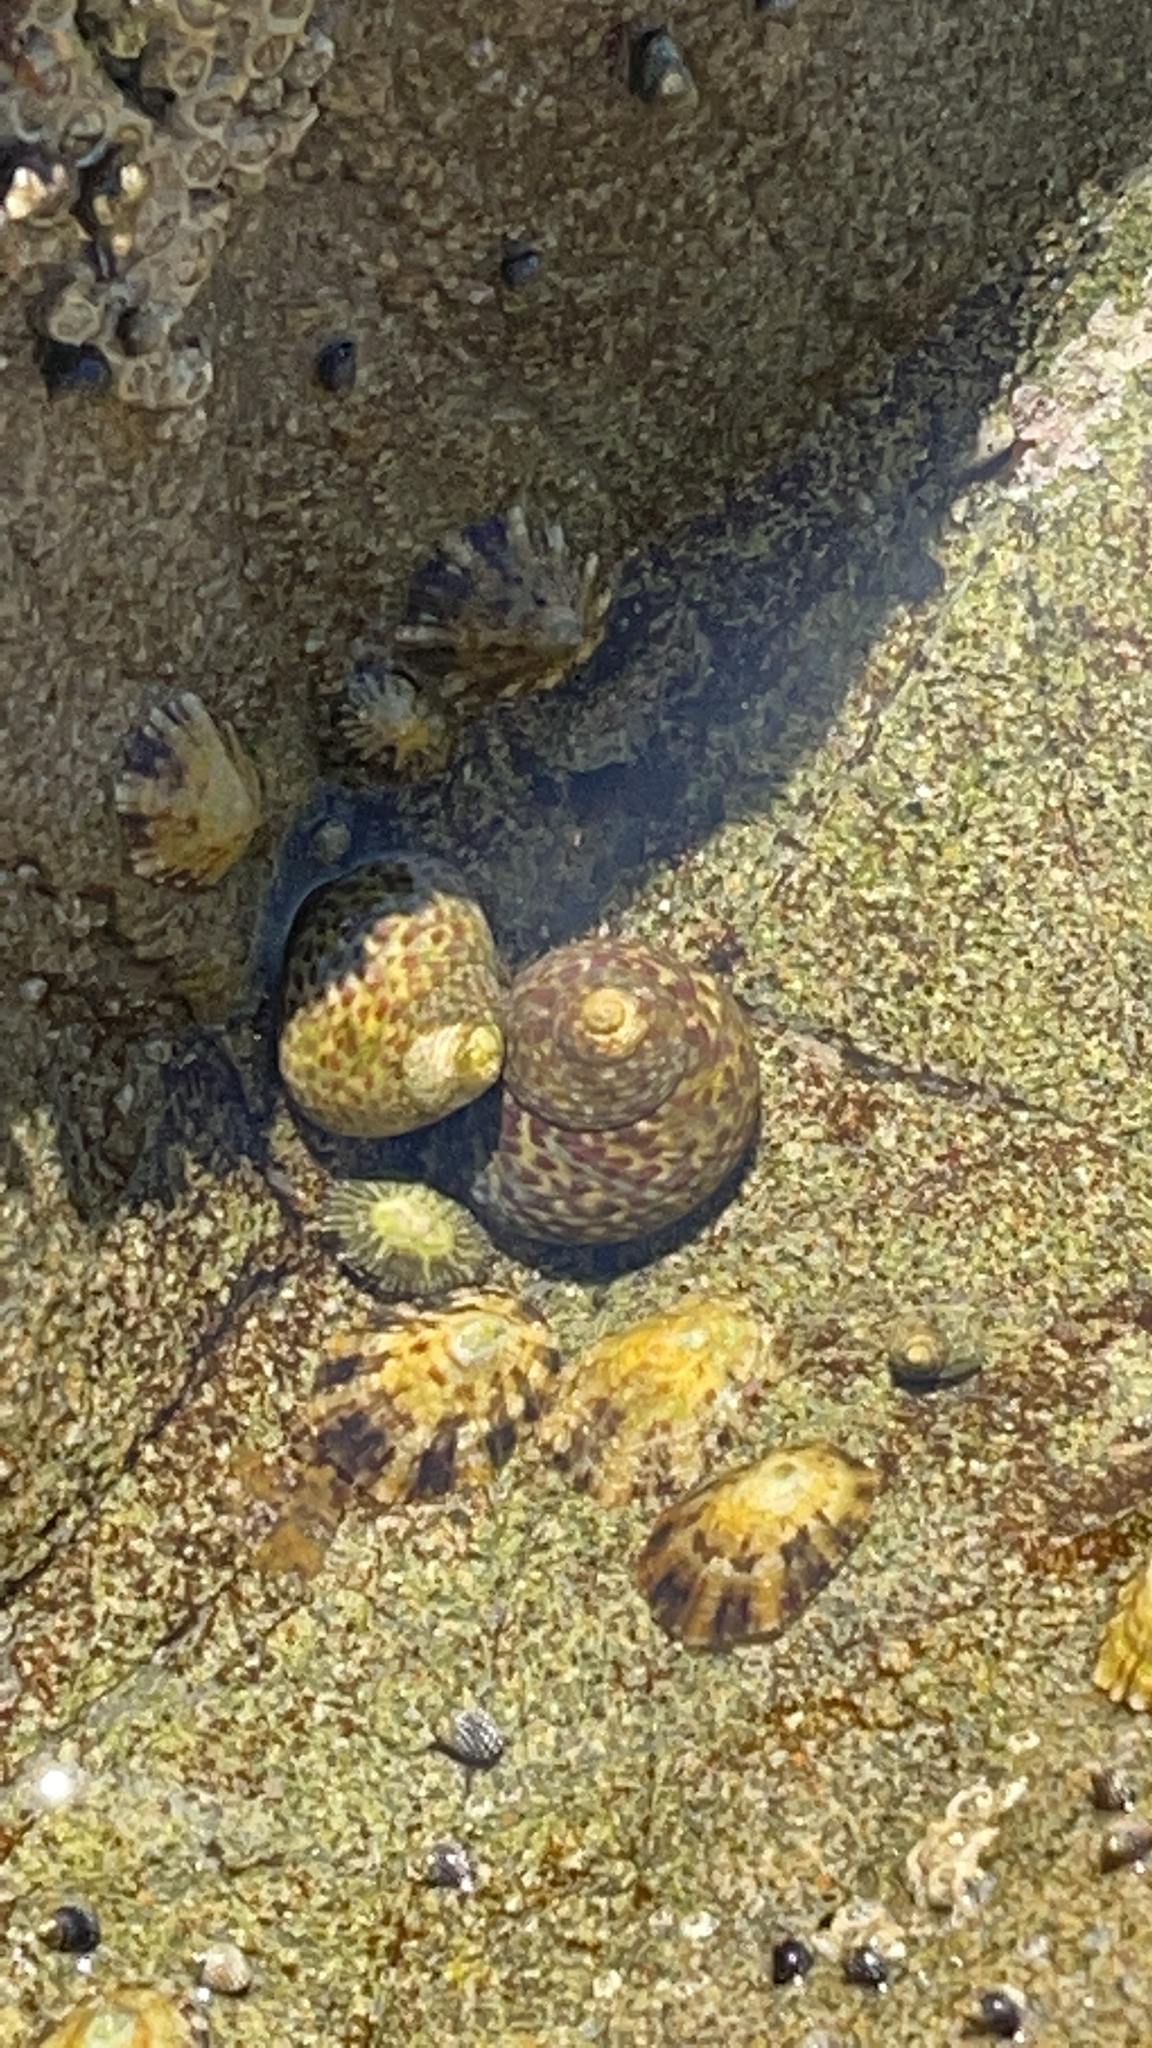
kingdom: Animalia
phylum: Mollusca
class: Gastropoda
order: Trochida
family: Trochidae
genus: Phorcus
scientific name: Phorcus turbinatus
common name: Turbinate monodont
